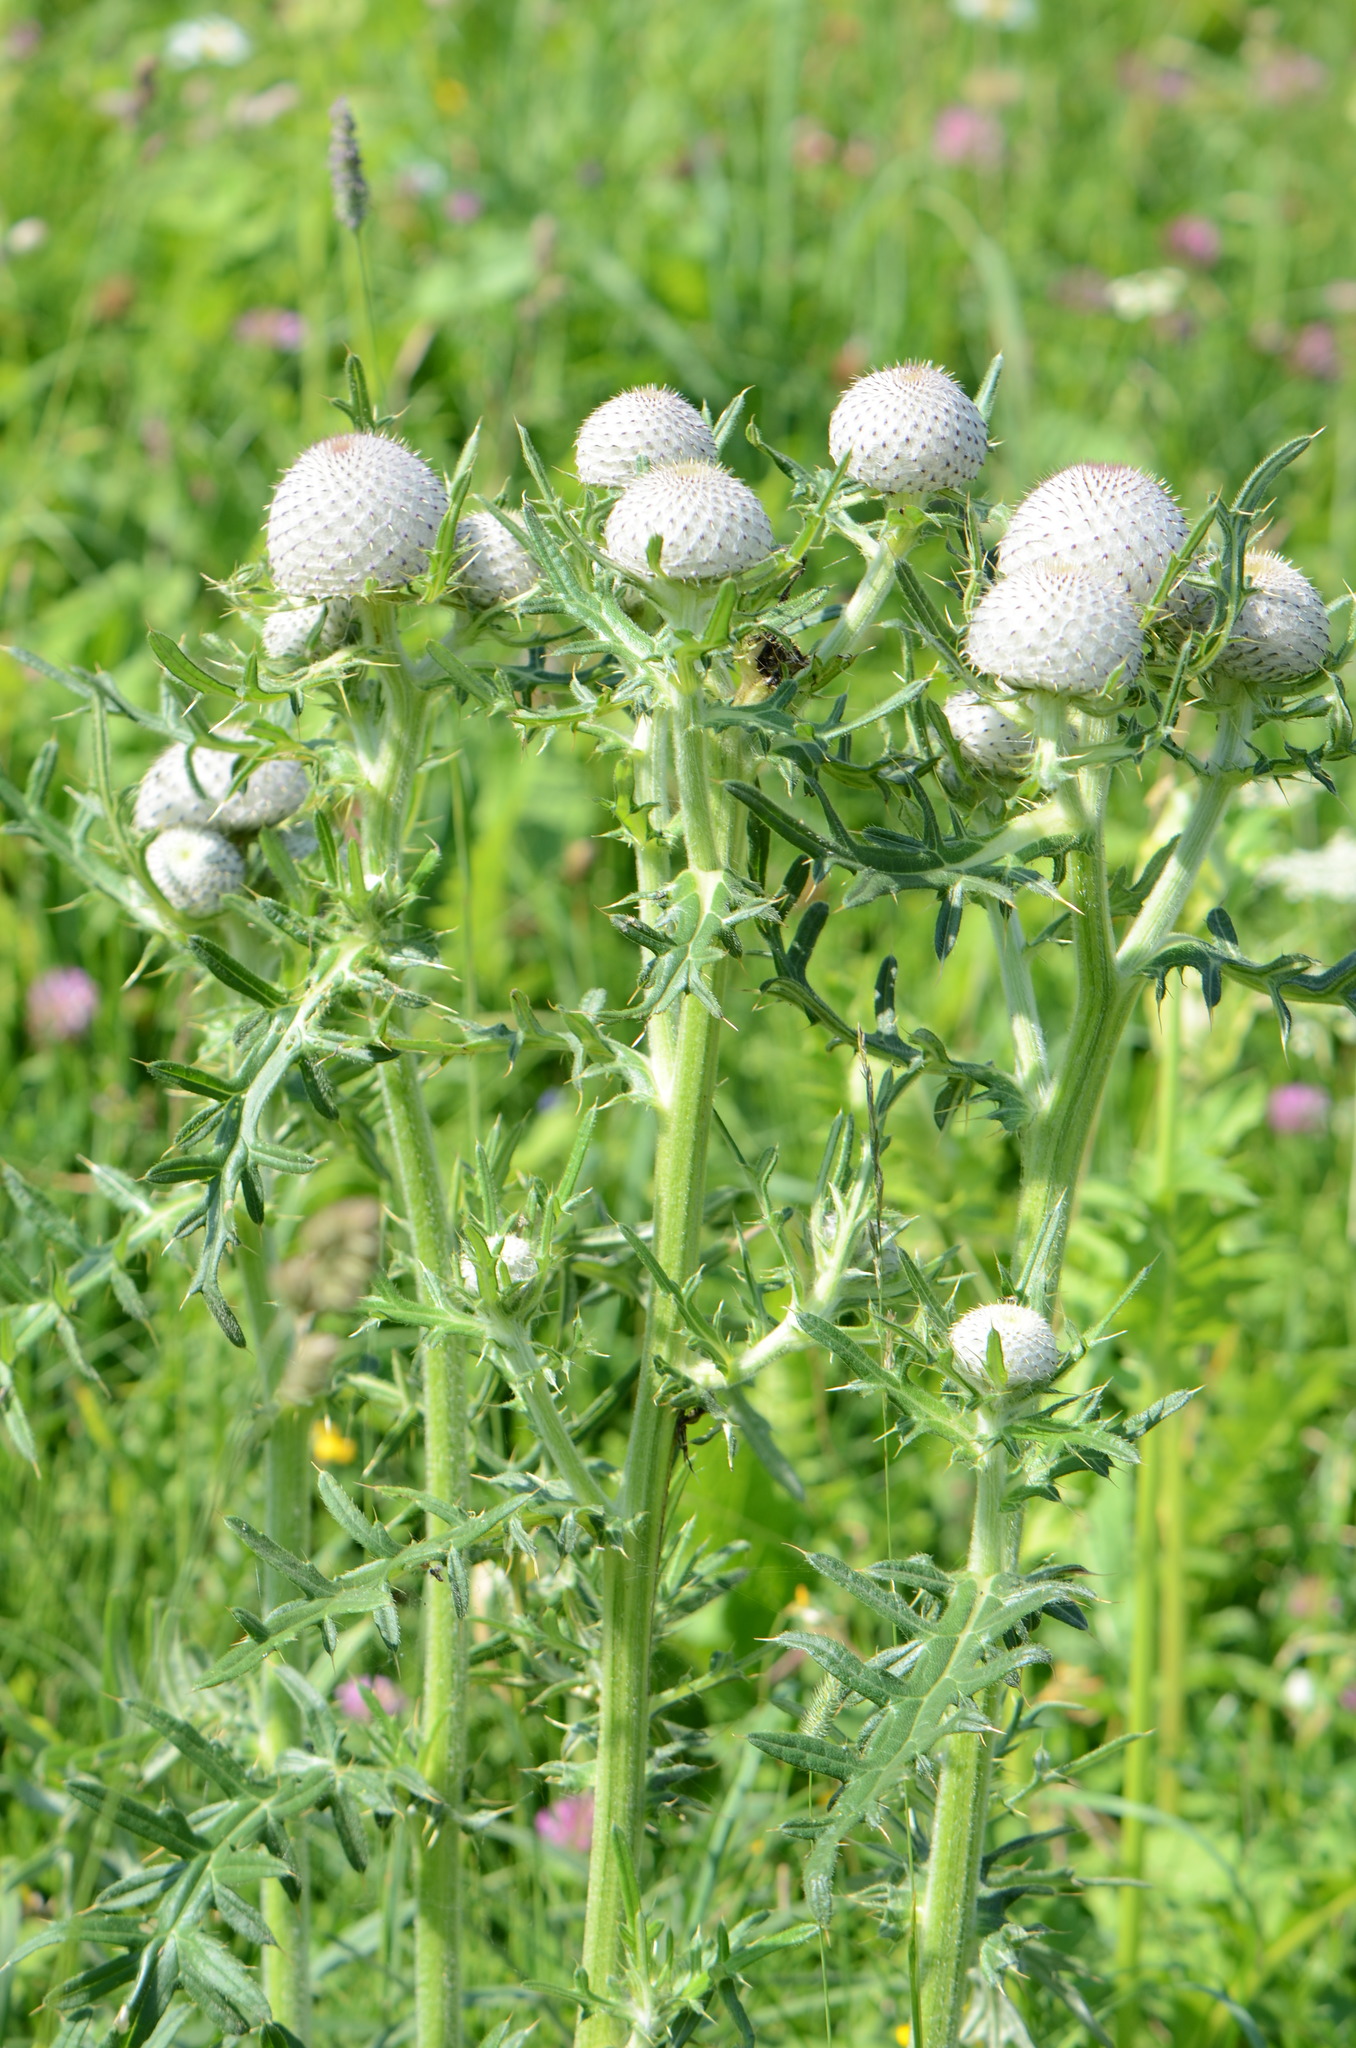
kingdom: Plantae
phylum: Tracheophyta
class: Magnoliopsida
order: Asterales
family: Asteraceae
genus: Lophiolepis
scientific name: Lophiolepis eriophora
